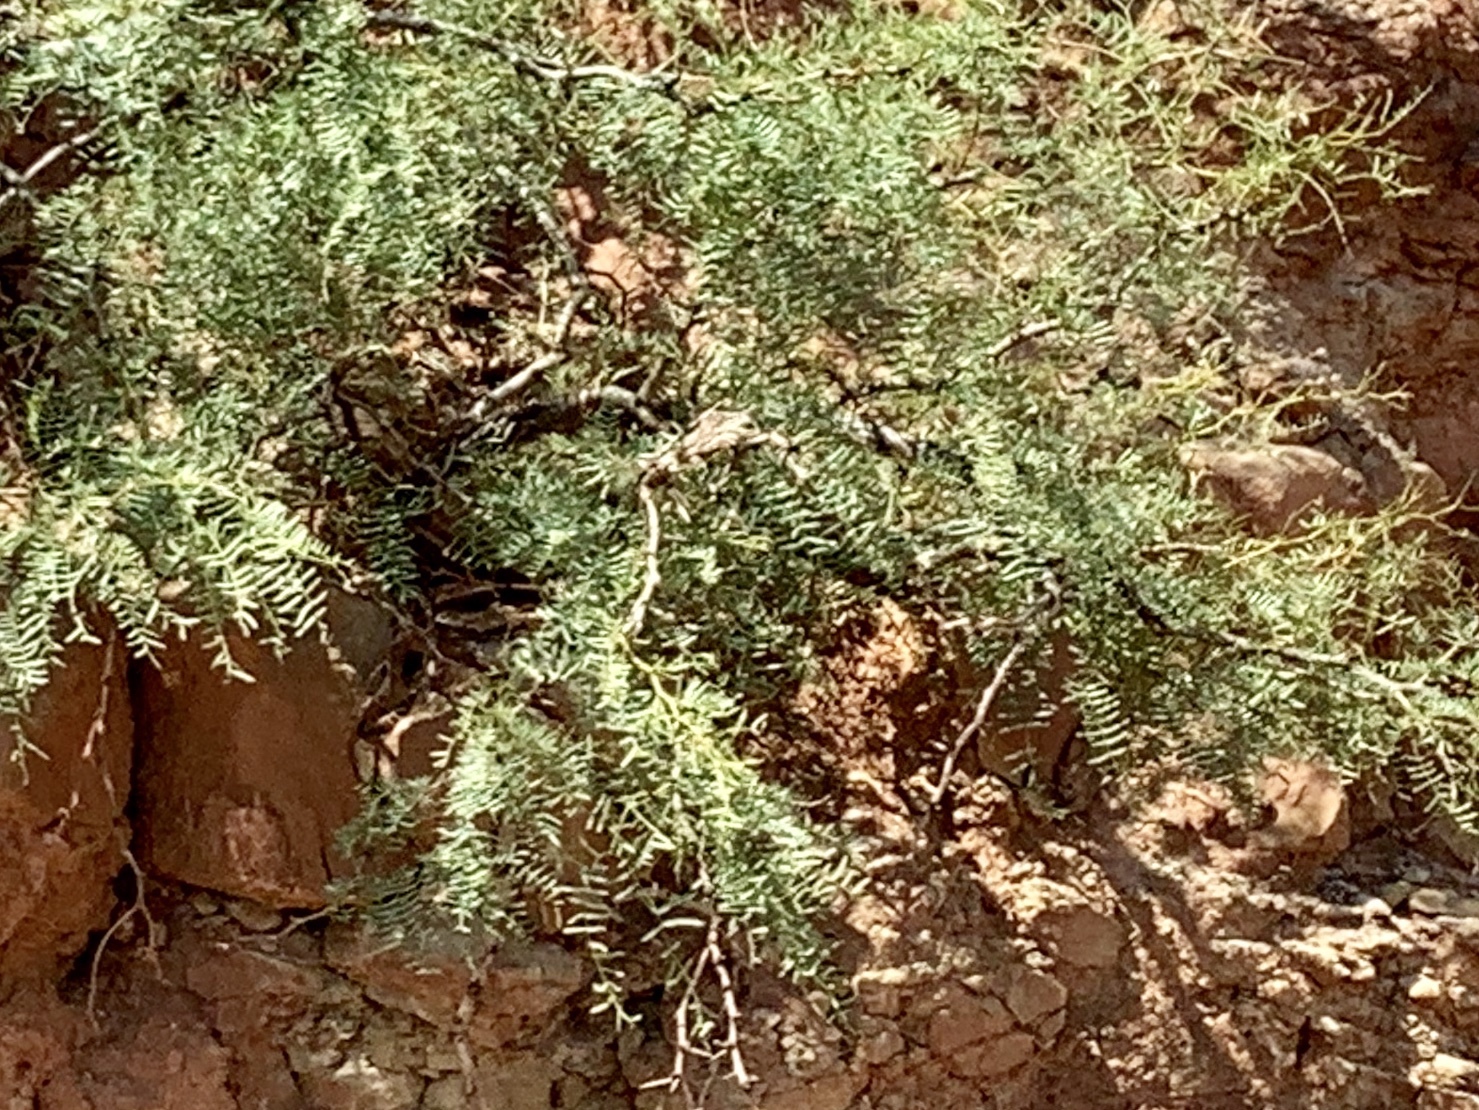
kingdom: Plantae
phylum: Tracheophyta
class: Magnoliopsida
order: Fabales
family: Fabaceae
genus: Prosopis
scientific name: Prosopis glandulosa
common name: Honey mesquite
